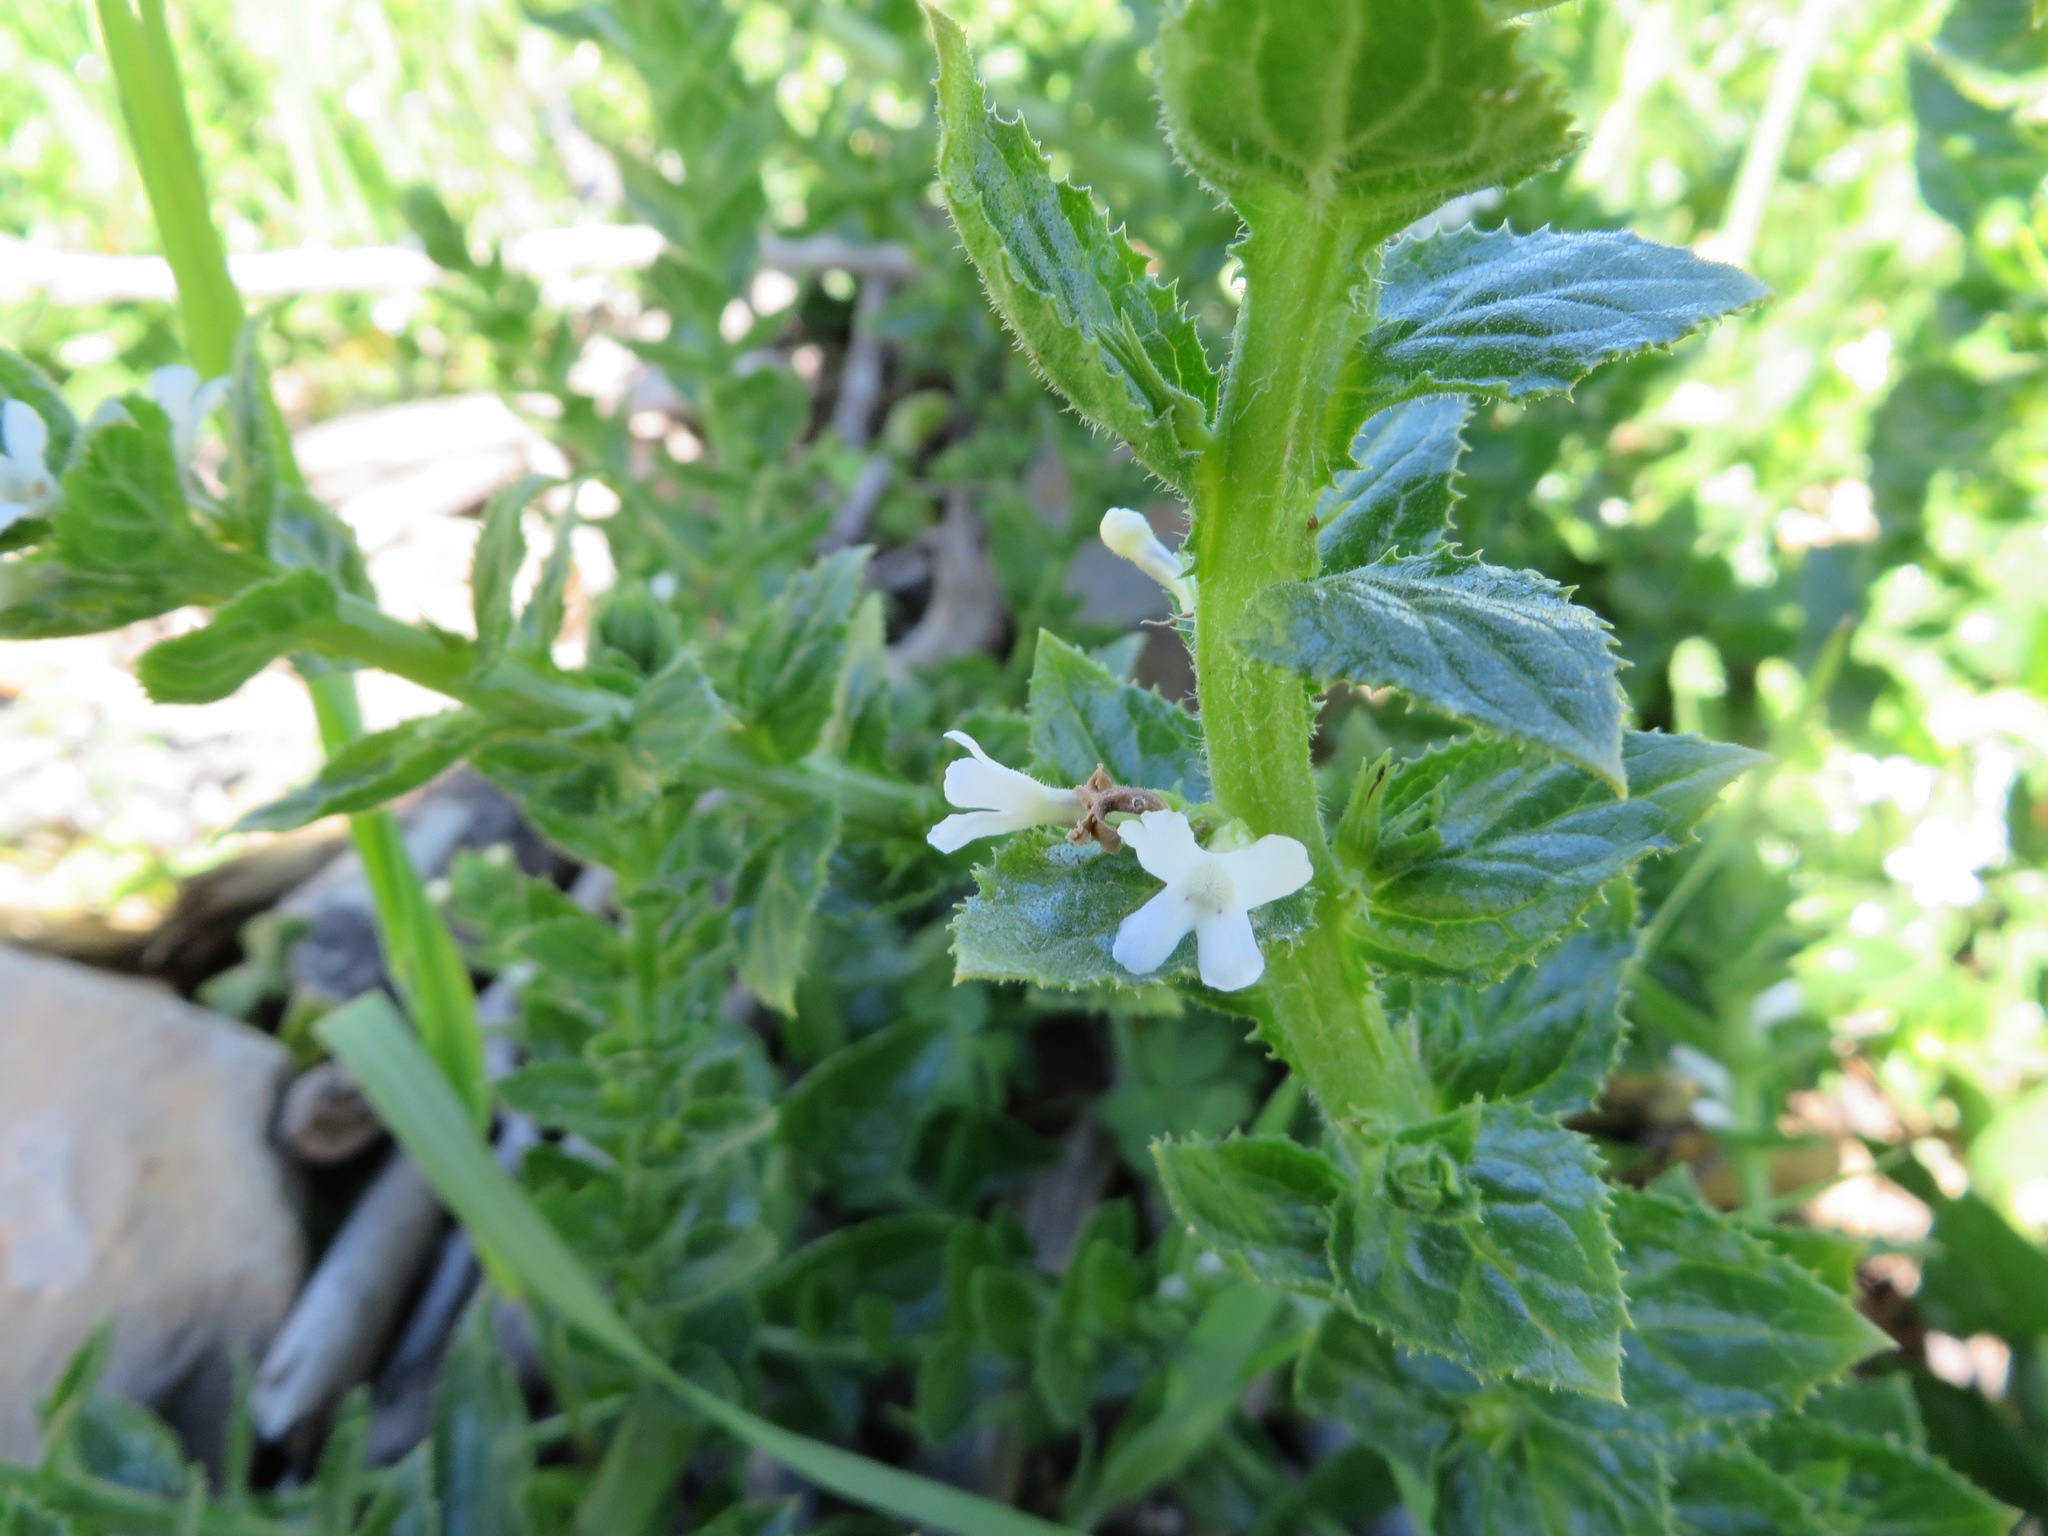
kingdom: Plantae
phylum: Tracheophyta
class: Magnoliopsida
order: Lamiales
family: Scrophulariaceae
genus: Oftia
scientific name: Oftia africana
